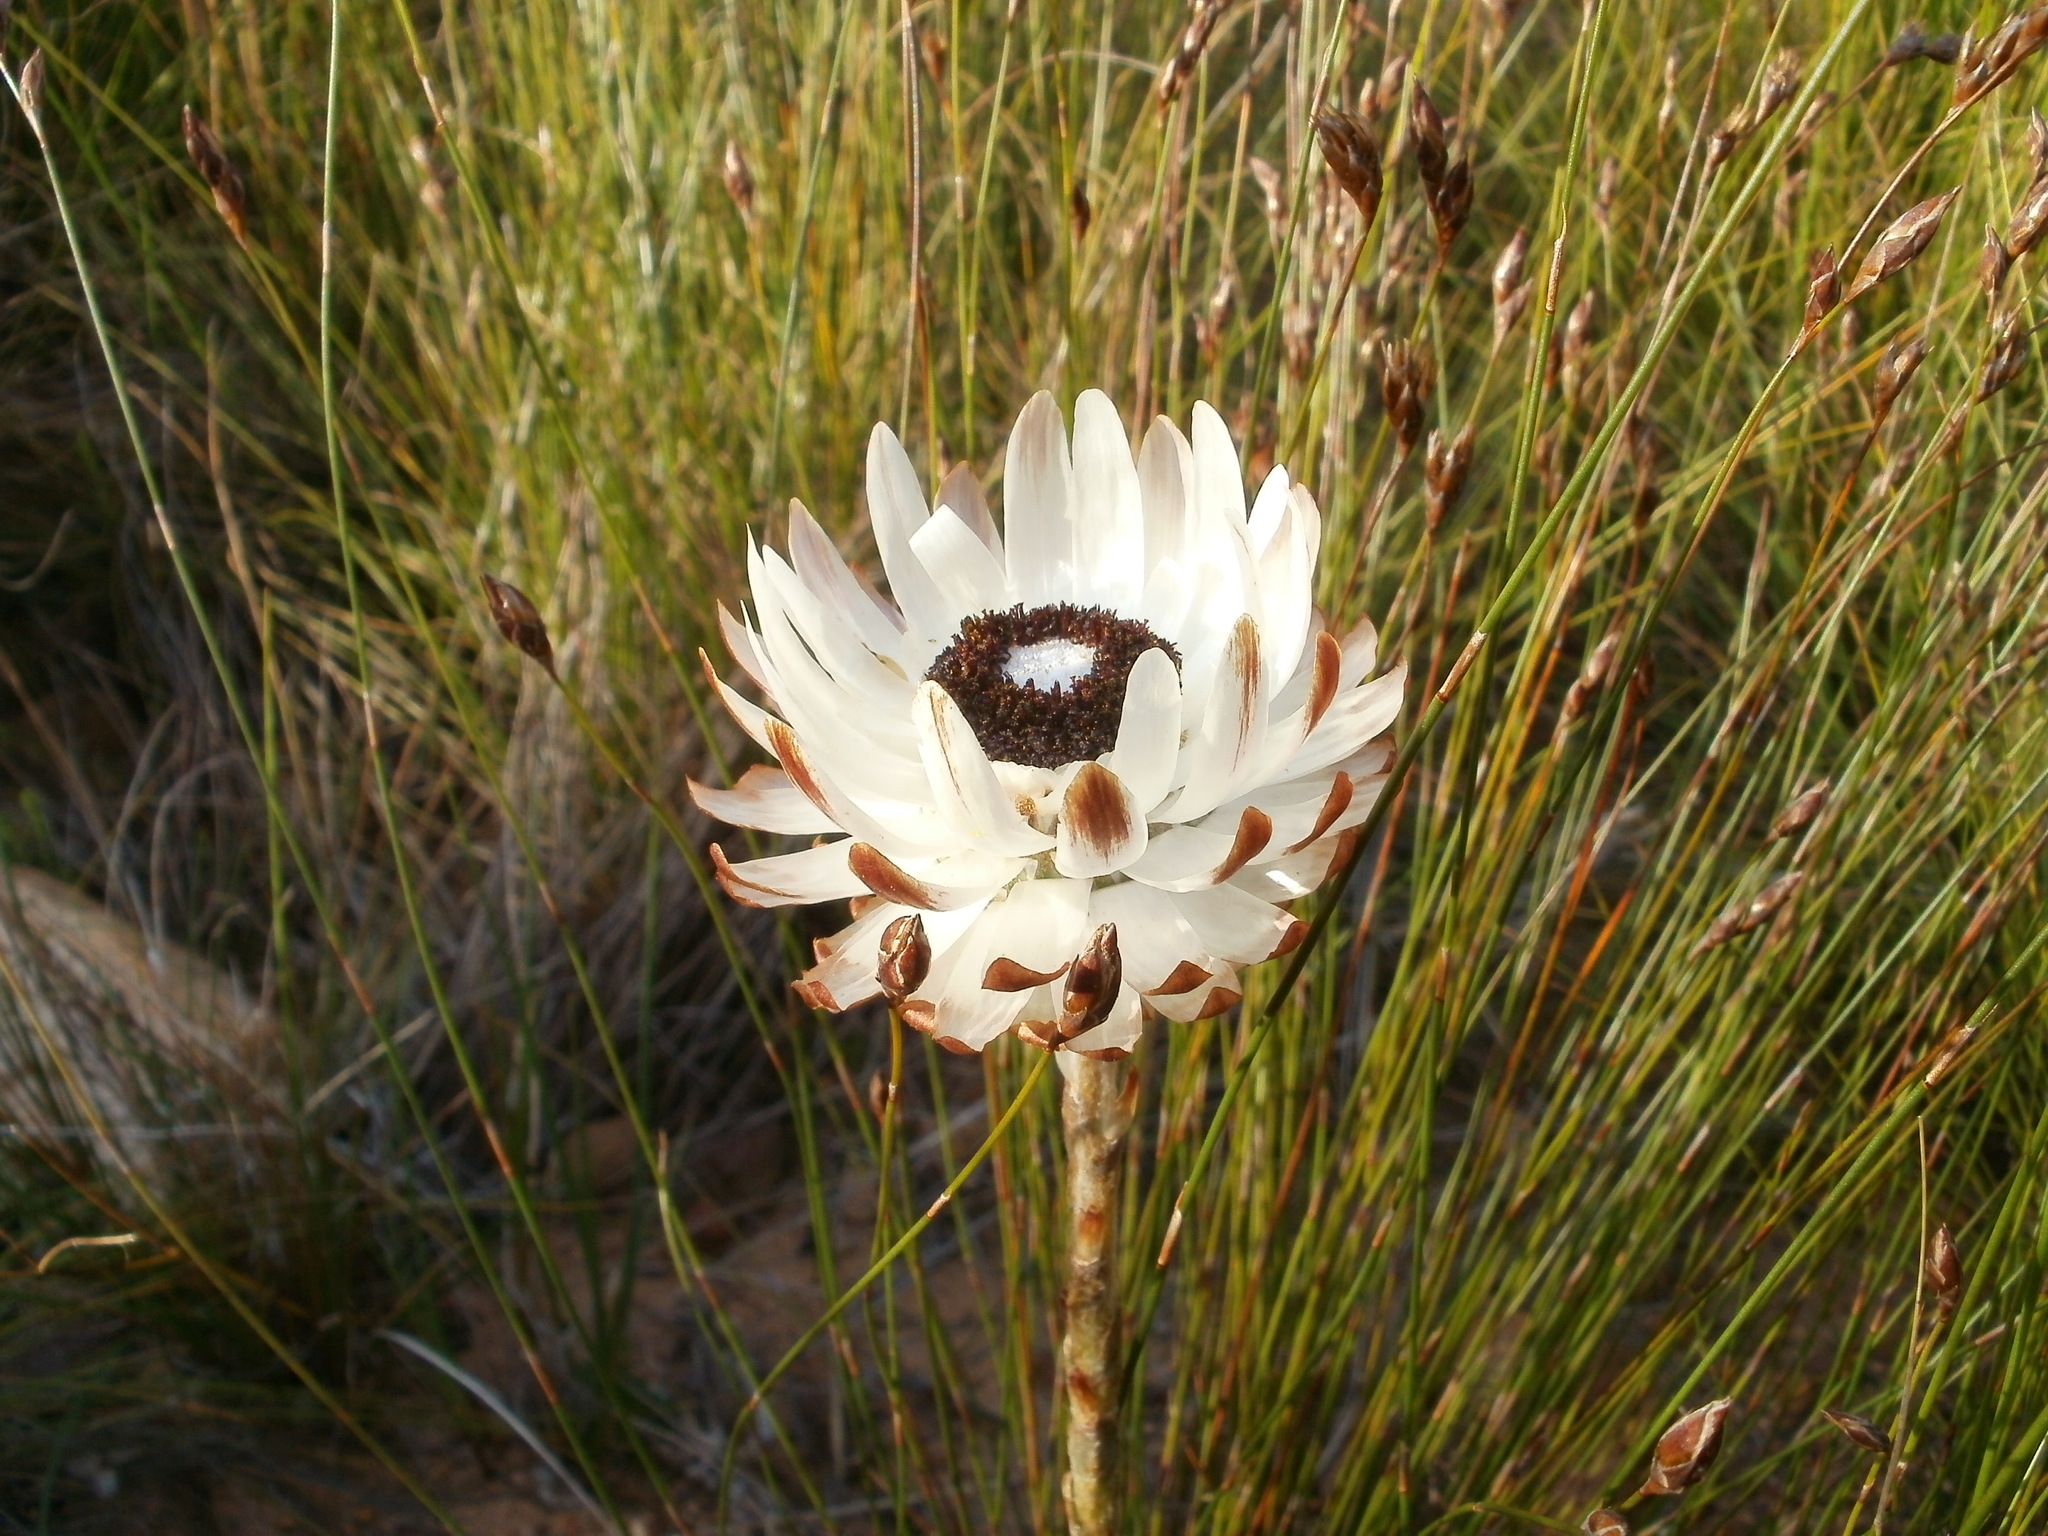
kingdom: Plantae
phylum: Tracheophyta
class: Magnoliopsida
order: Asterales
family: Asteraceae
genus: Syncarpha
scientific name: Syncarpha variegata
